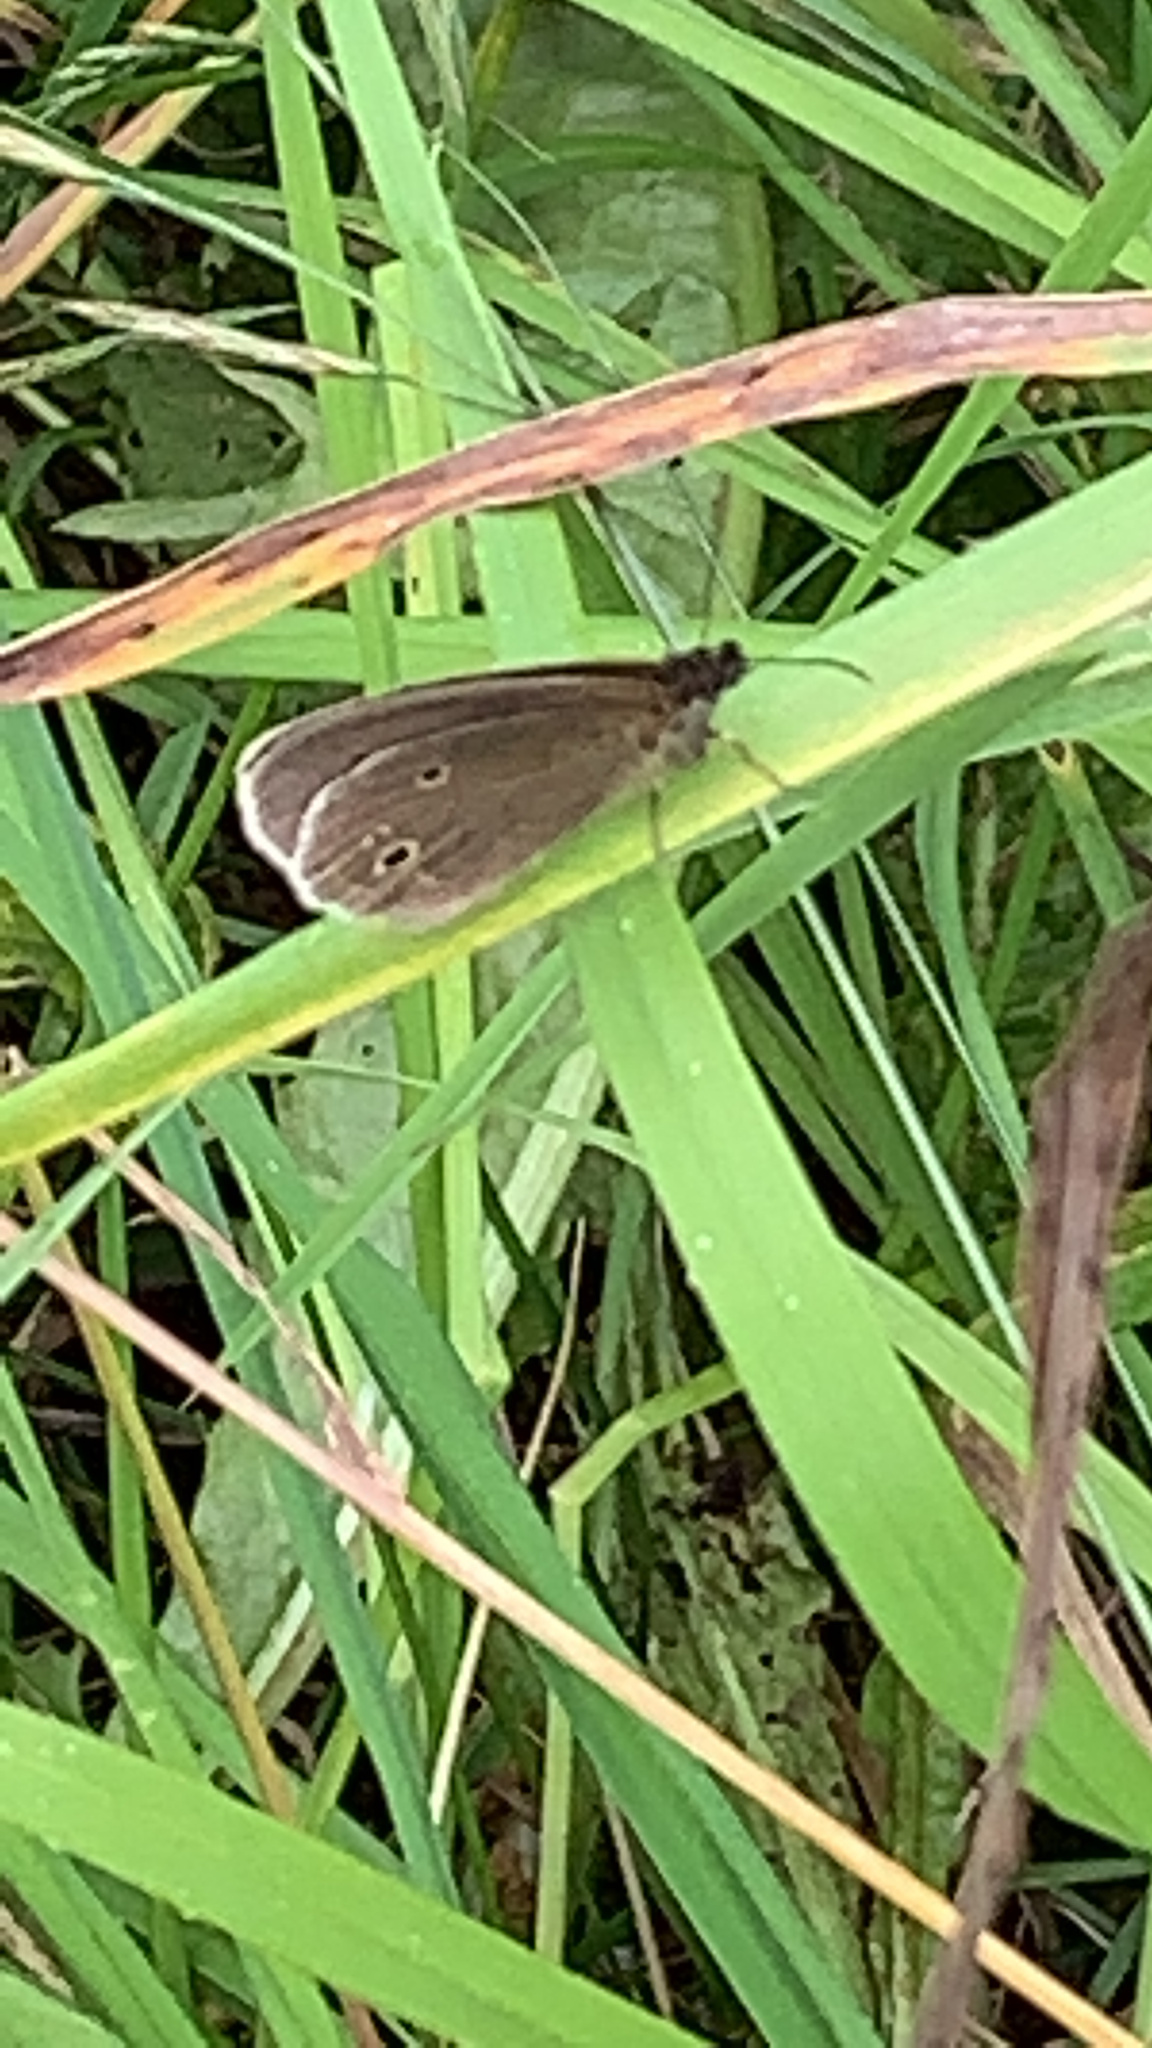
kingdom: Animalia
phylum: Arthropoda
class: Insecta
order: Lepidoptera
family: Nymphalidae
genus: Aphantopus
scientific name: Aphantopus hyperantus
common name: Ringlet
